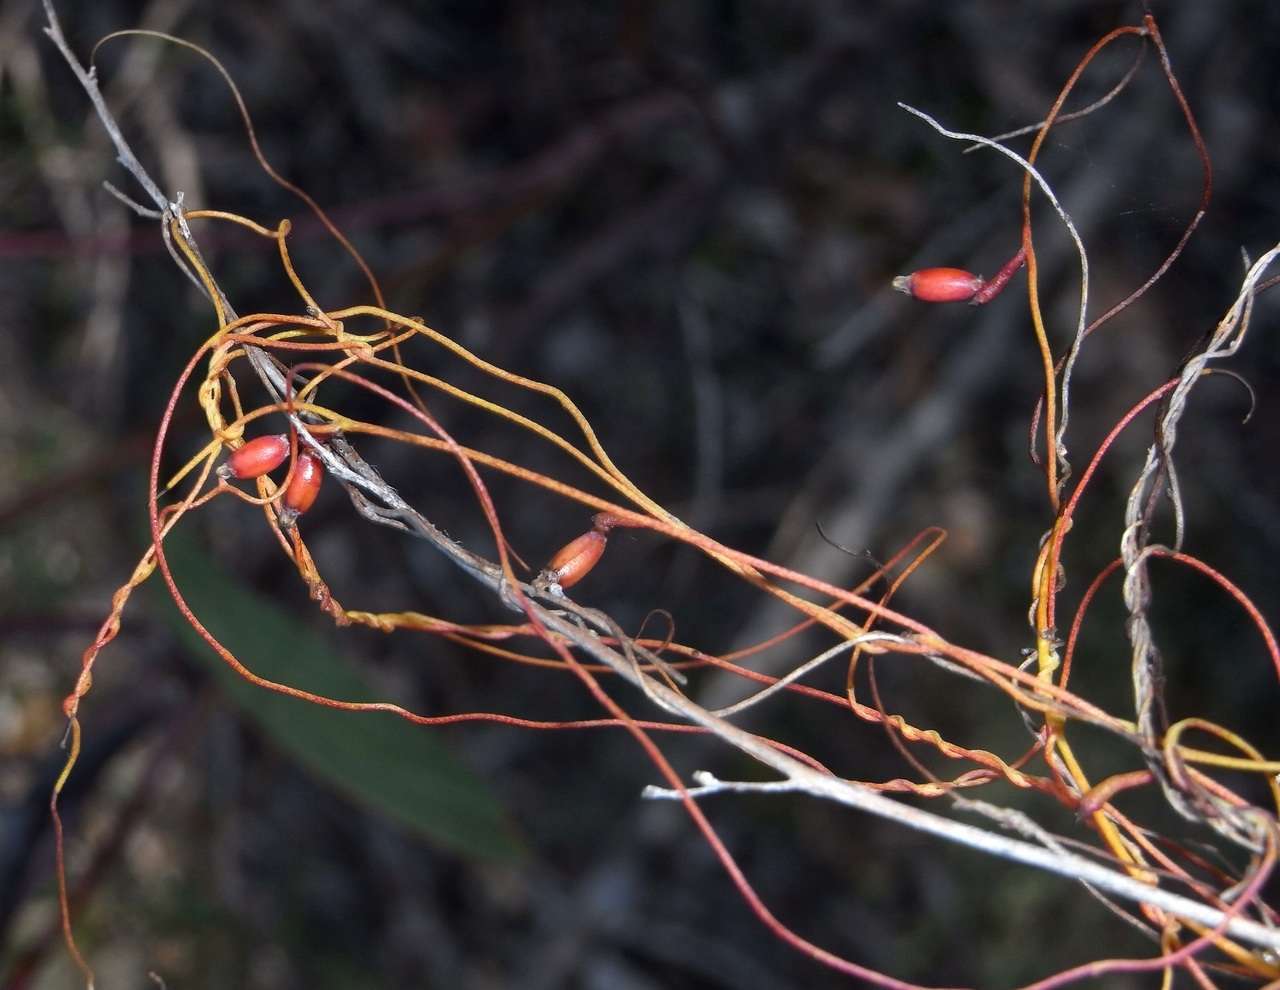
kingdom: Plantae
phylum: Tracheophyta
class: Magnoliopsida
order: Laurales
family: Lauraceae
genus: Cassytha
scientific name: Cassytha glabella
